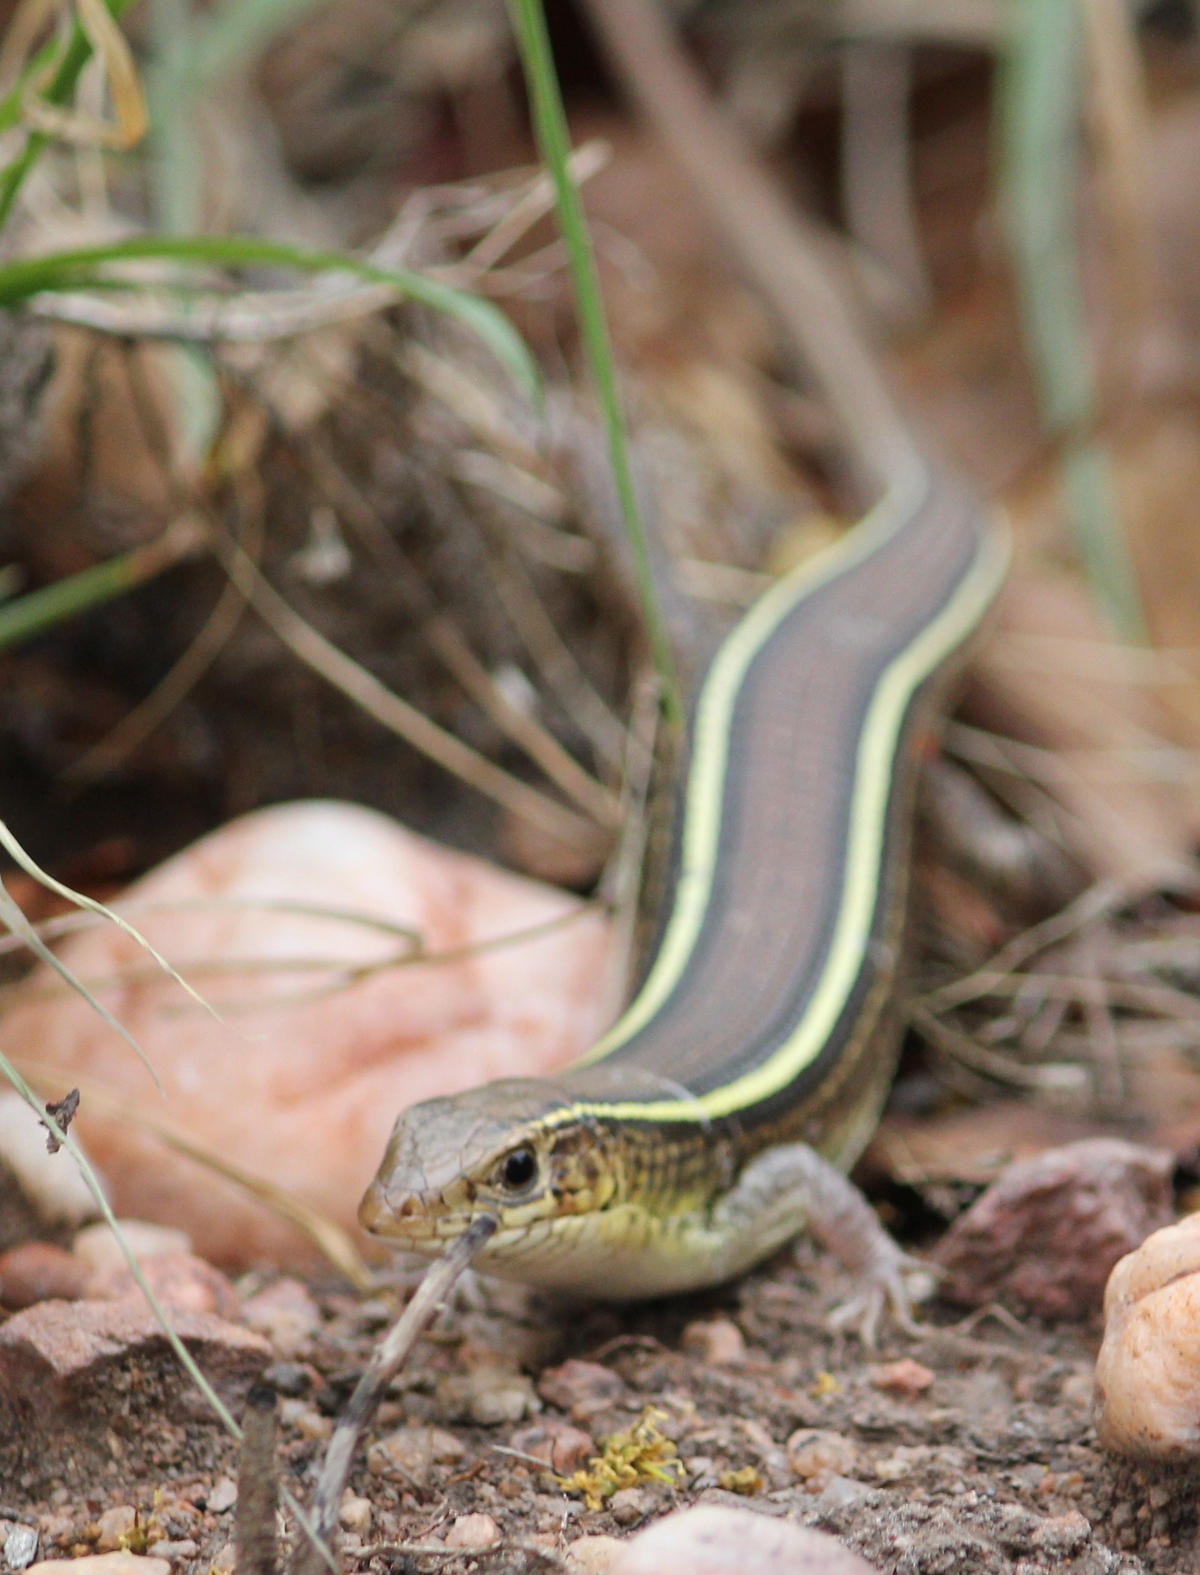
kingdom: Animalia
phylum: Chordata
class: Squamata
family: Gerrhosauridae
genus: Gerrhosaurus
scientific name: Gerrhosaurus flavigularis
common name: Yellow-throated plated lizard
